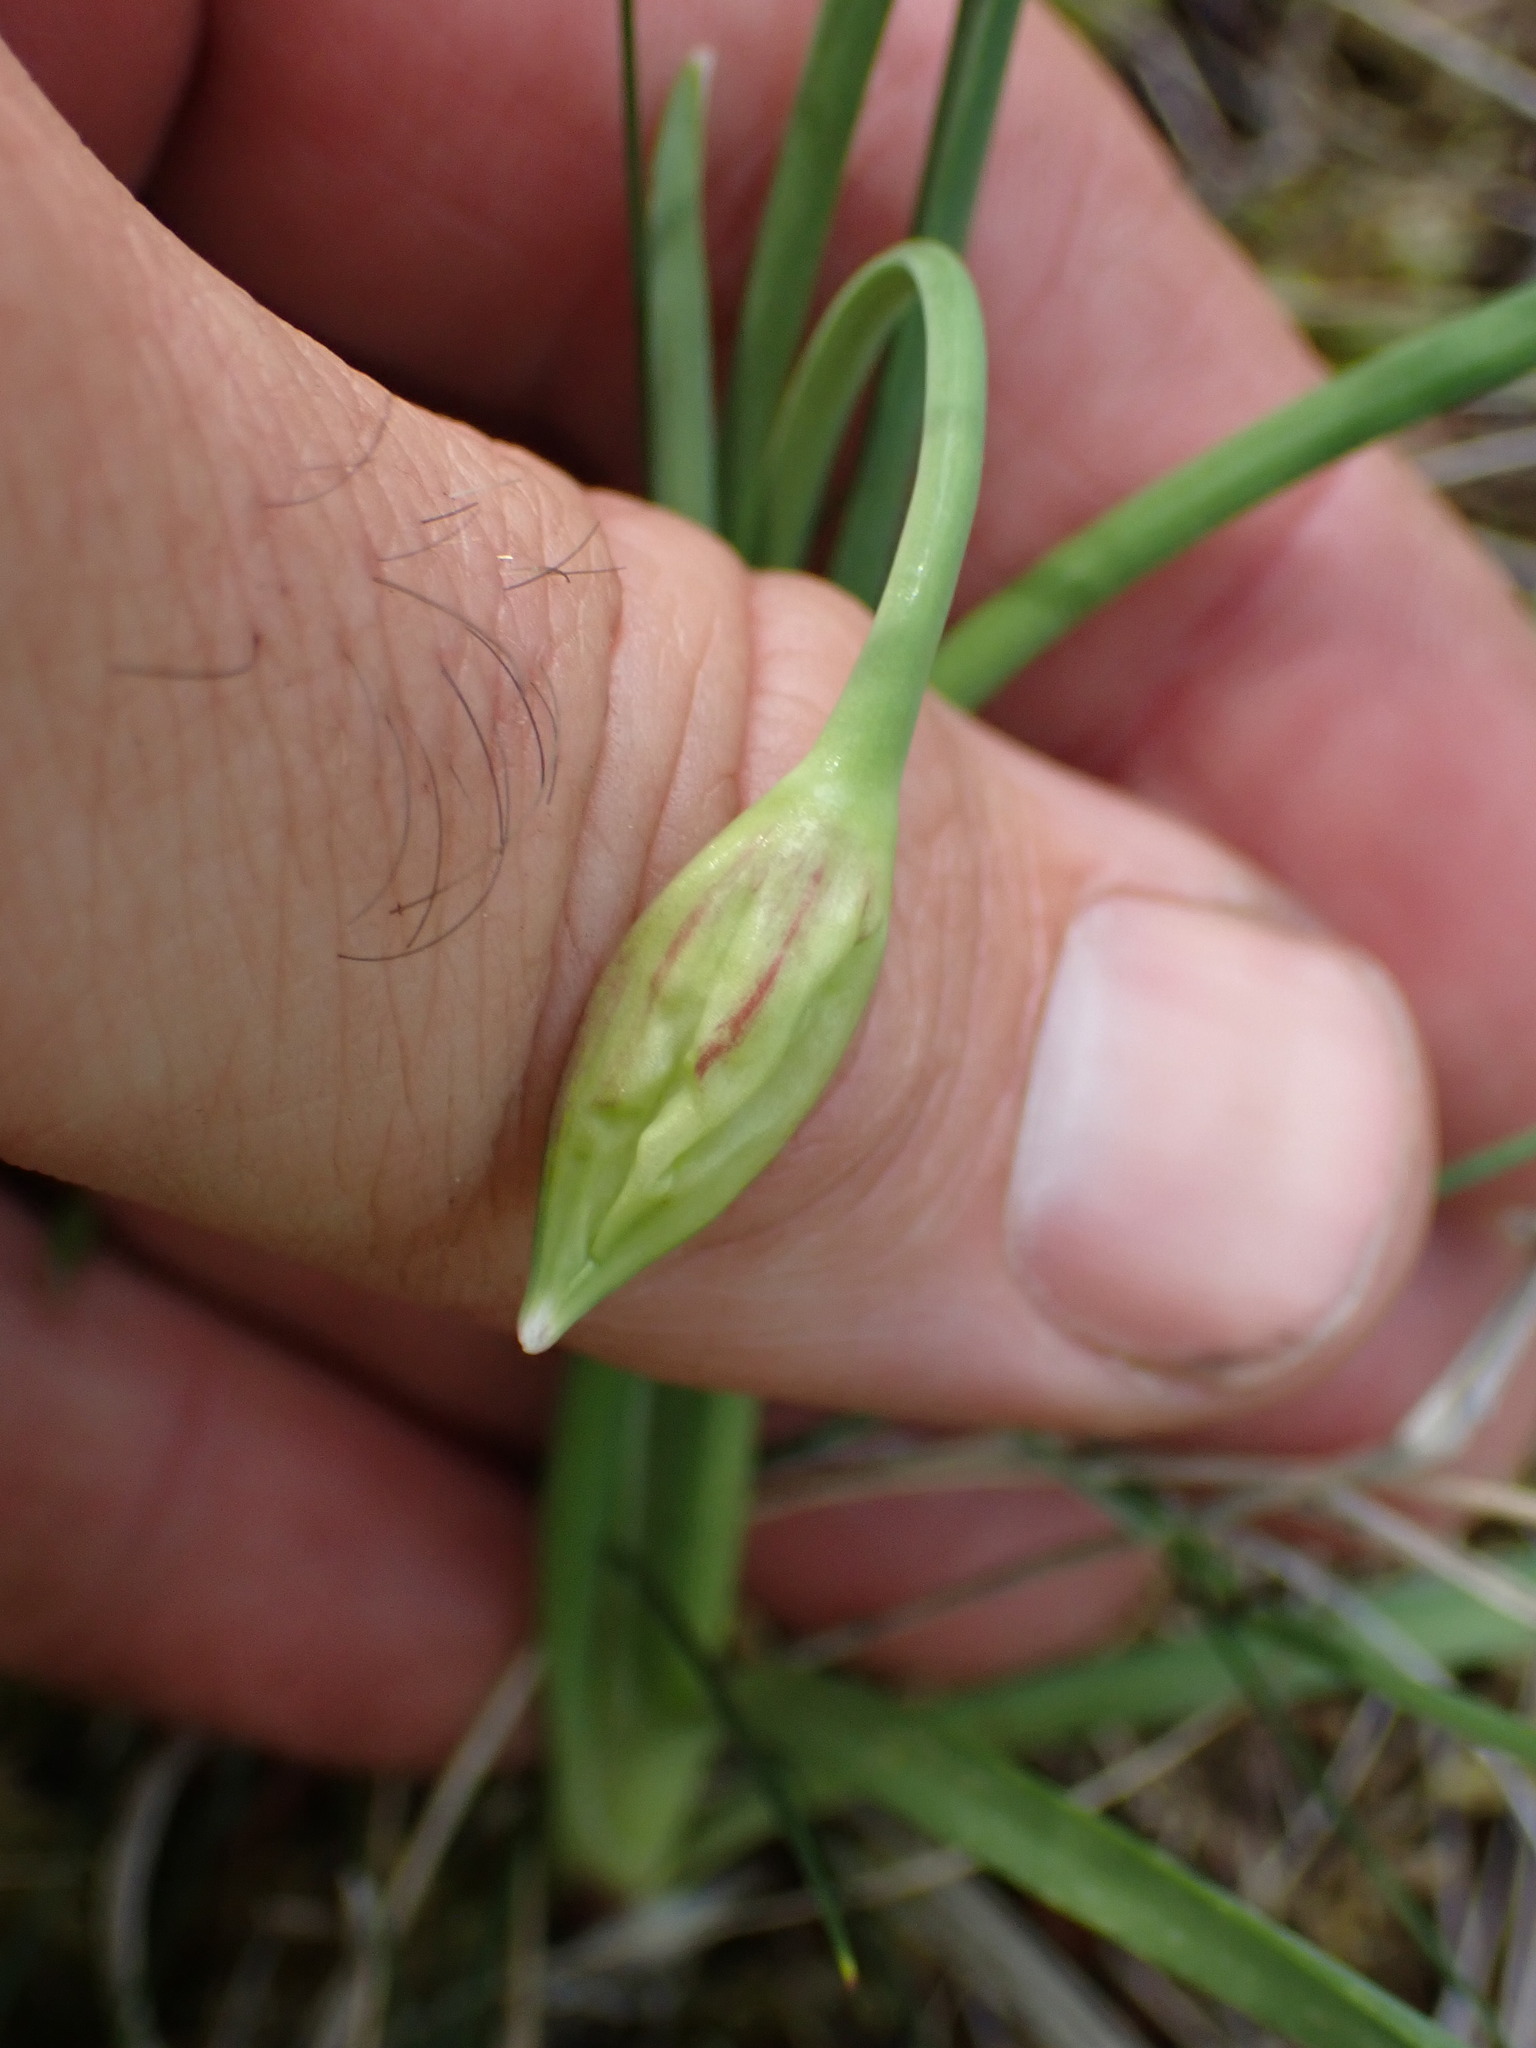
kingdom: Plantae
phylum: Tracheophyta
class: Liliopsida
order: Asparagales
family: Amaryllidaceae
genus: Allium
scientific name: Allium cernuum
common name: Nodding onion
